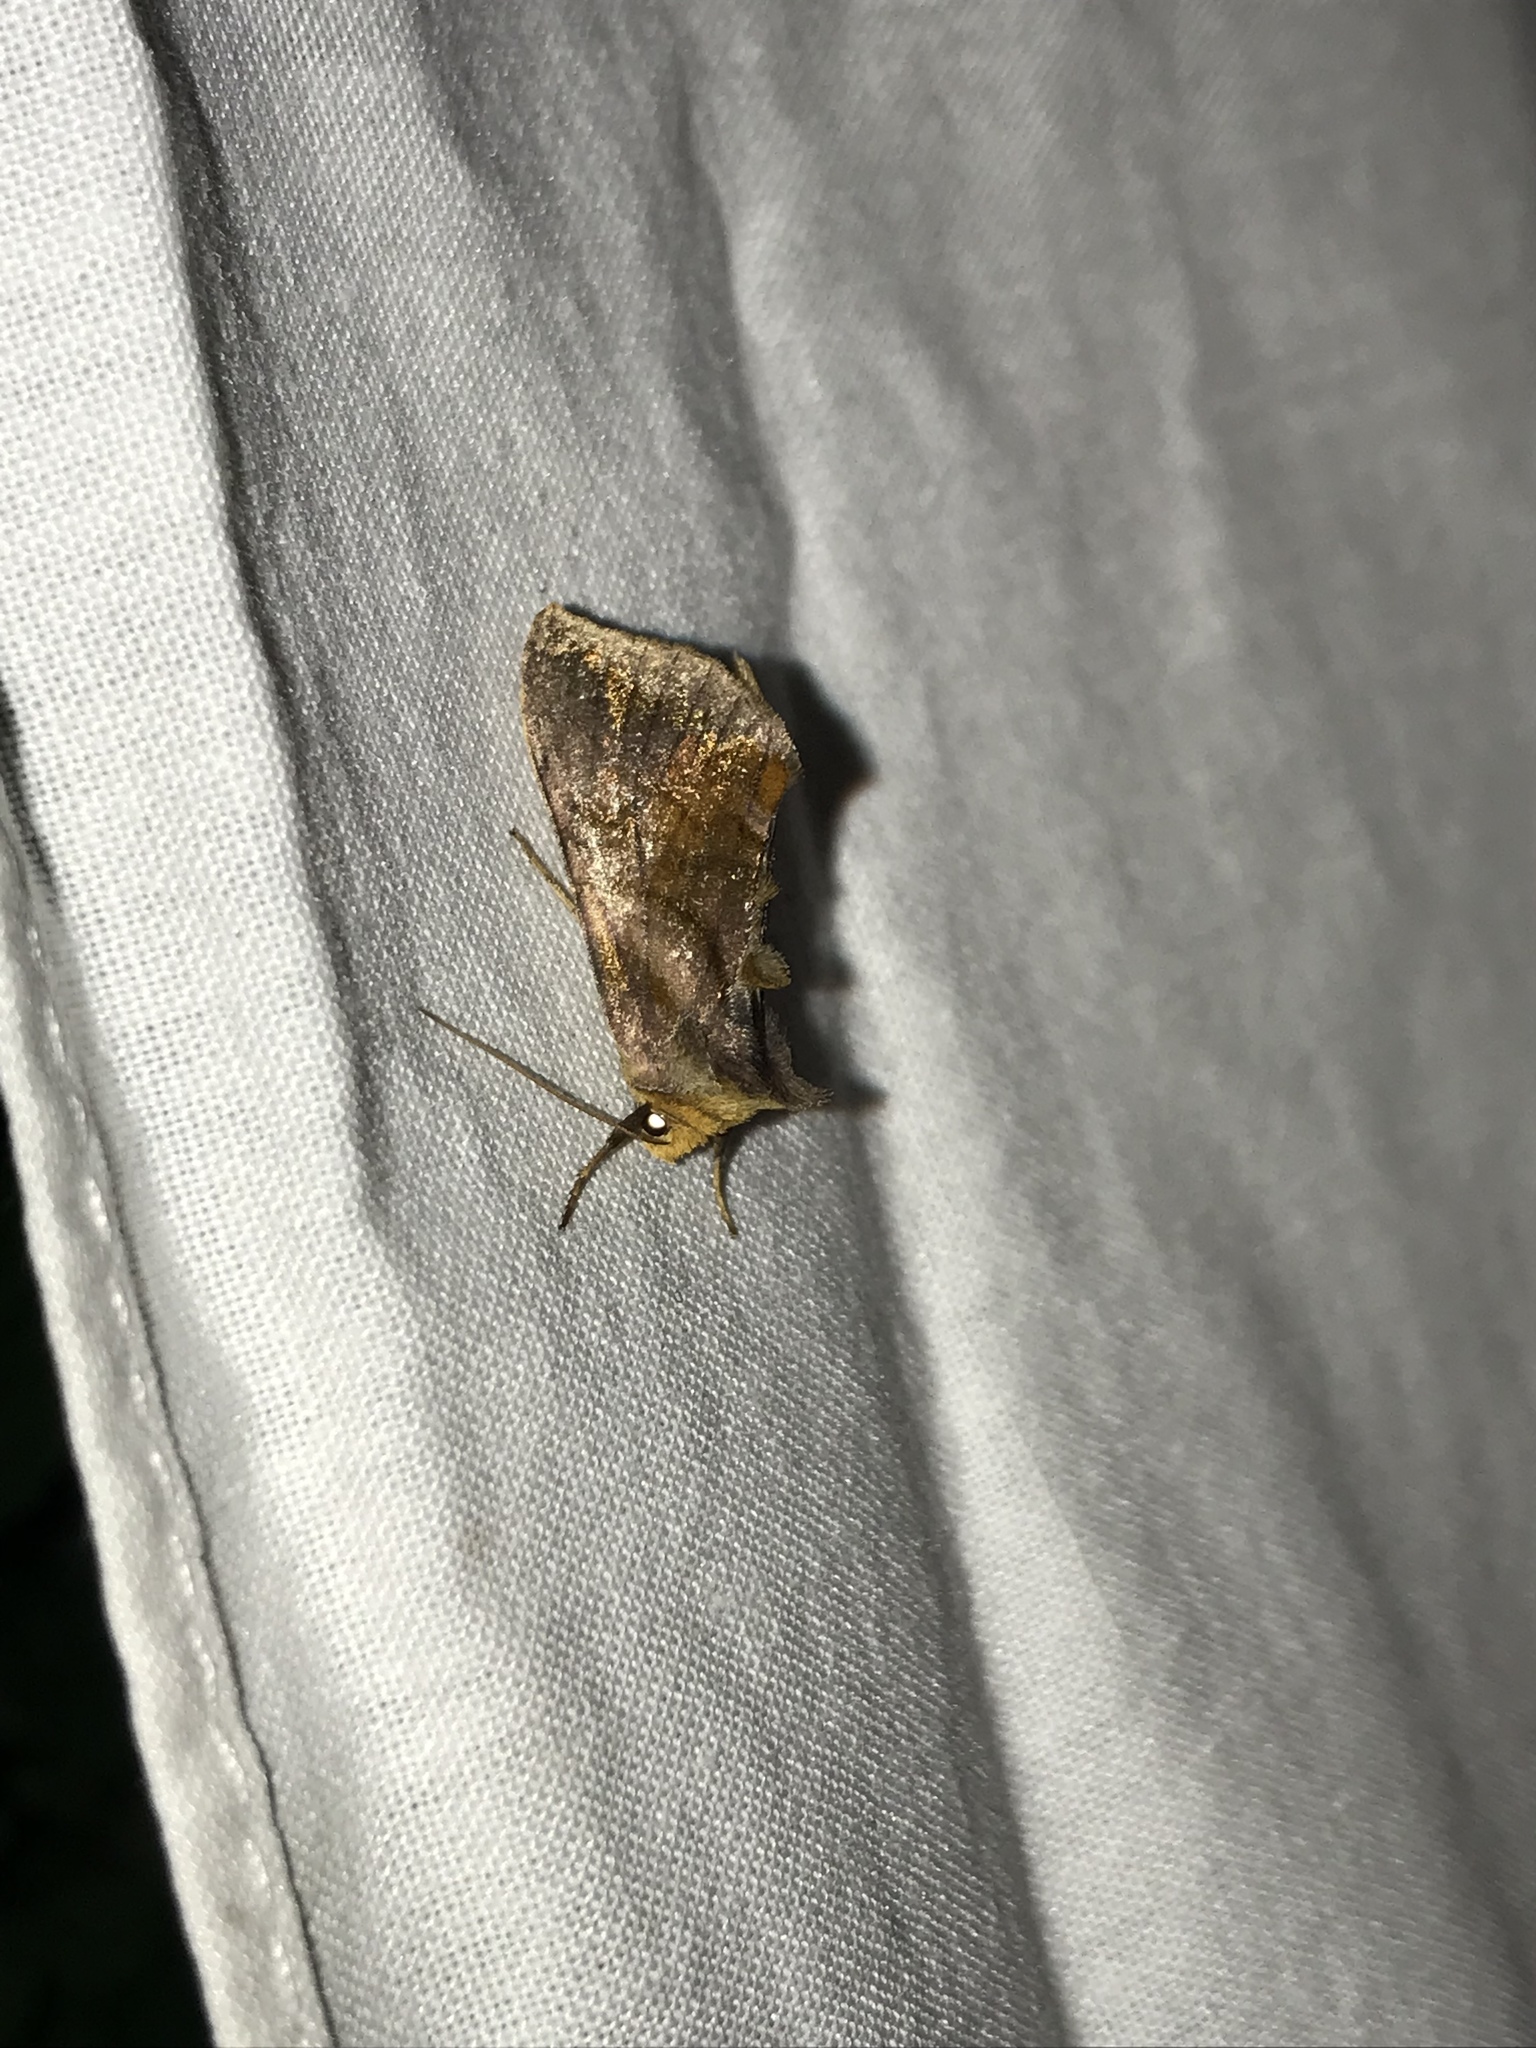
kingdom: Animalia
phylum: Arthropoda
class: Insecta
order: Lepidoptera
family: Noctuidae
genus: Allagrapha
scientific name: Allagrapha aerea
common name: Unspotted looper moth
